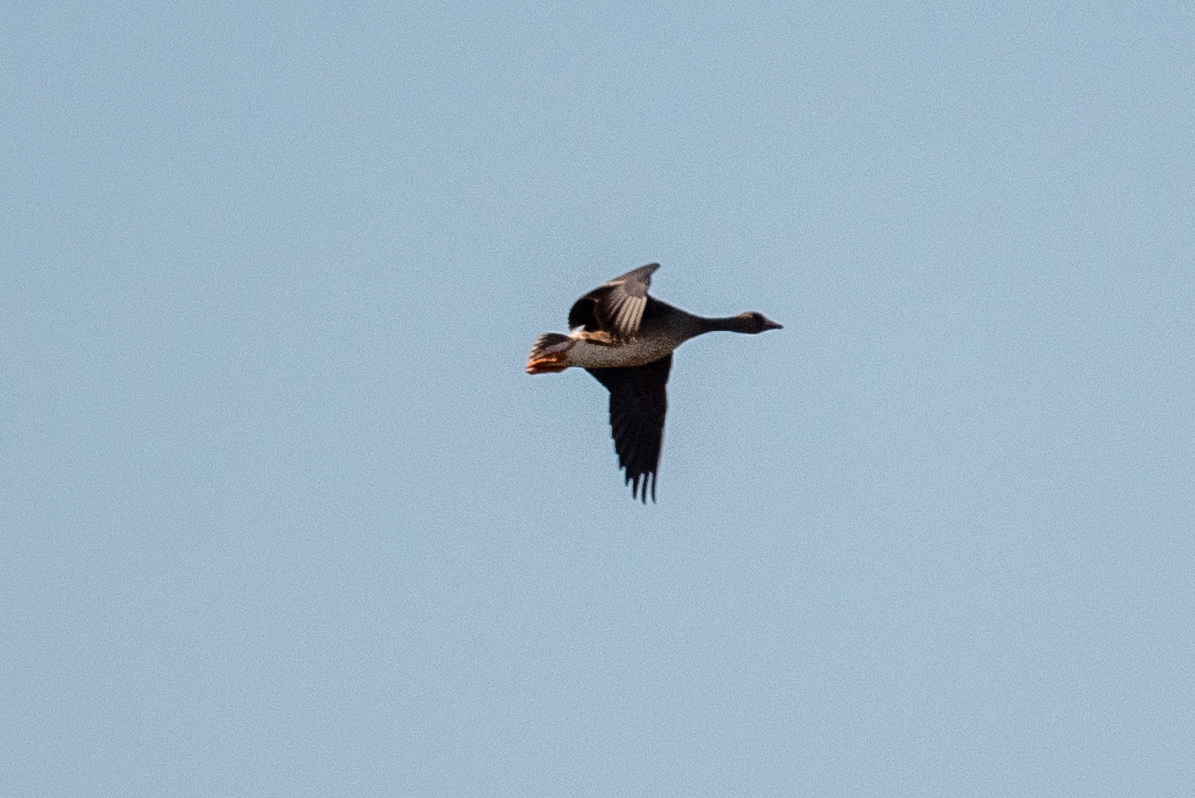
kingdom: Animalia
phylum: Chordata
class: Aves
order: Anseriformes
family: Anatidae
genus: Anser
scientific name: Anser albifrons
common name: Greater white-fronted goose
